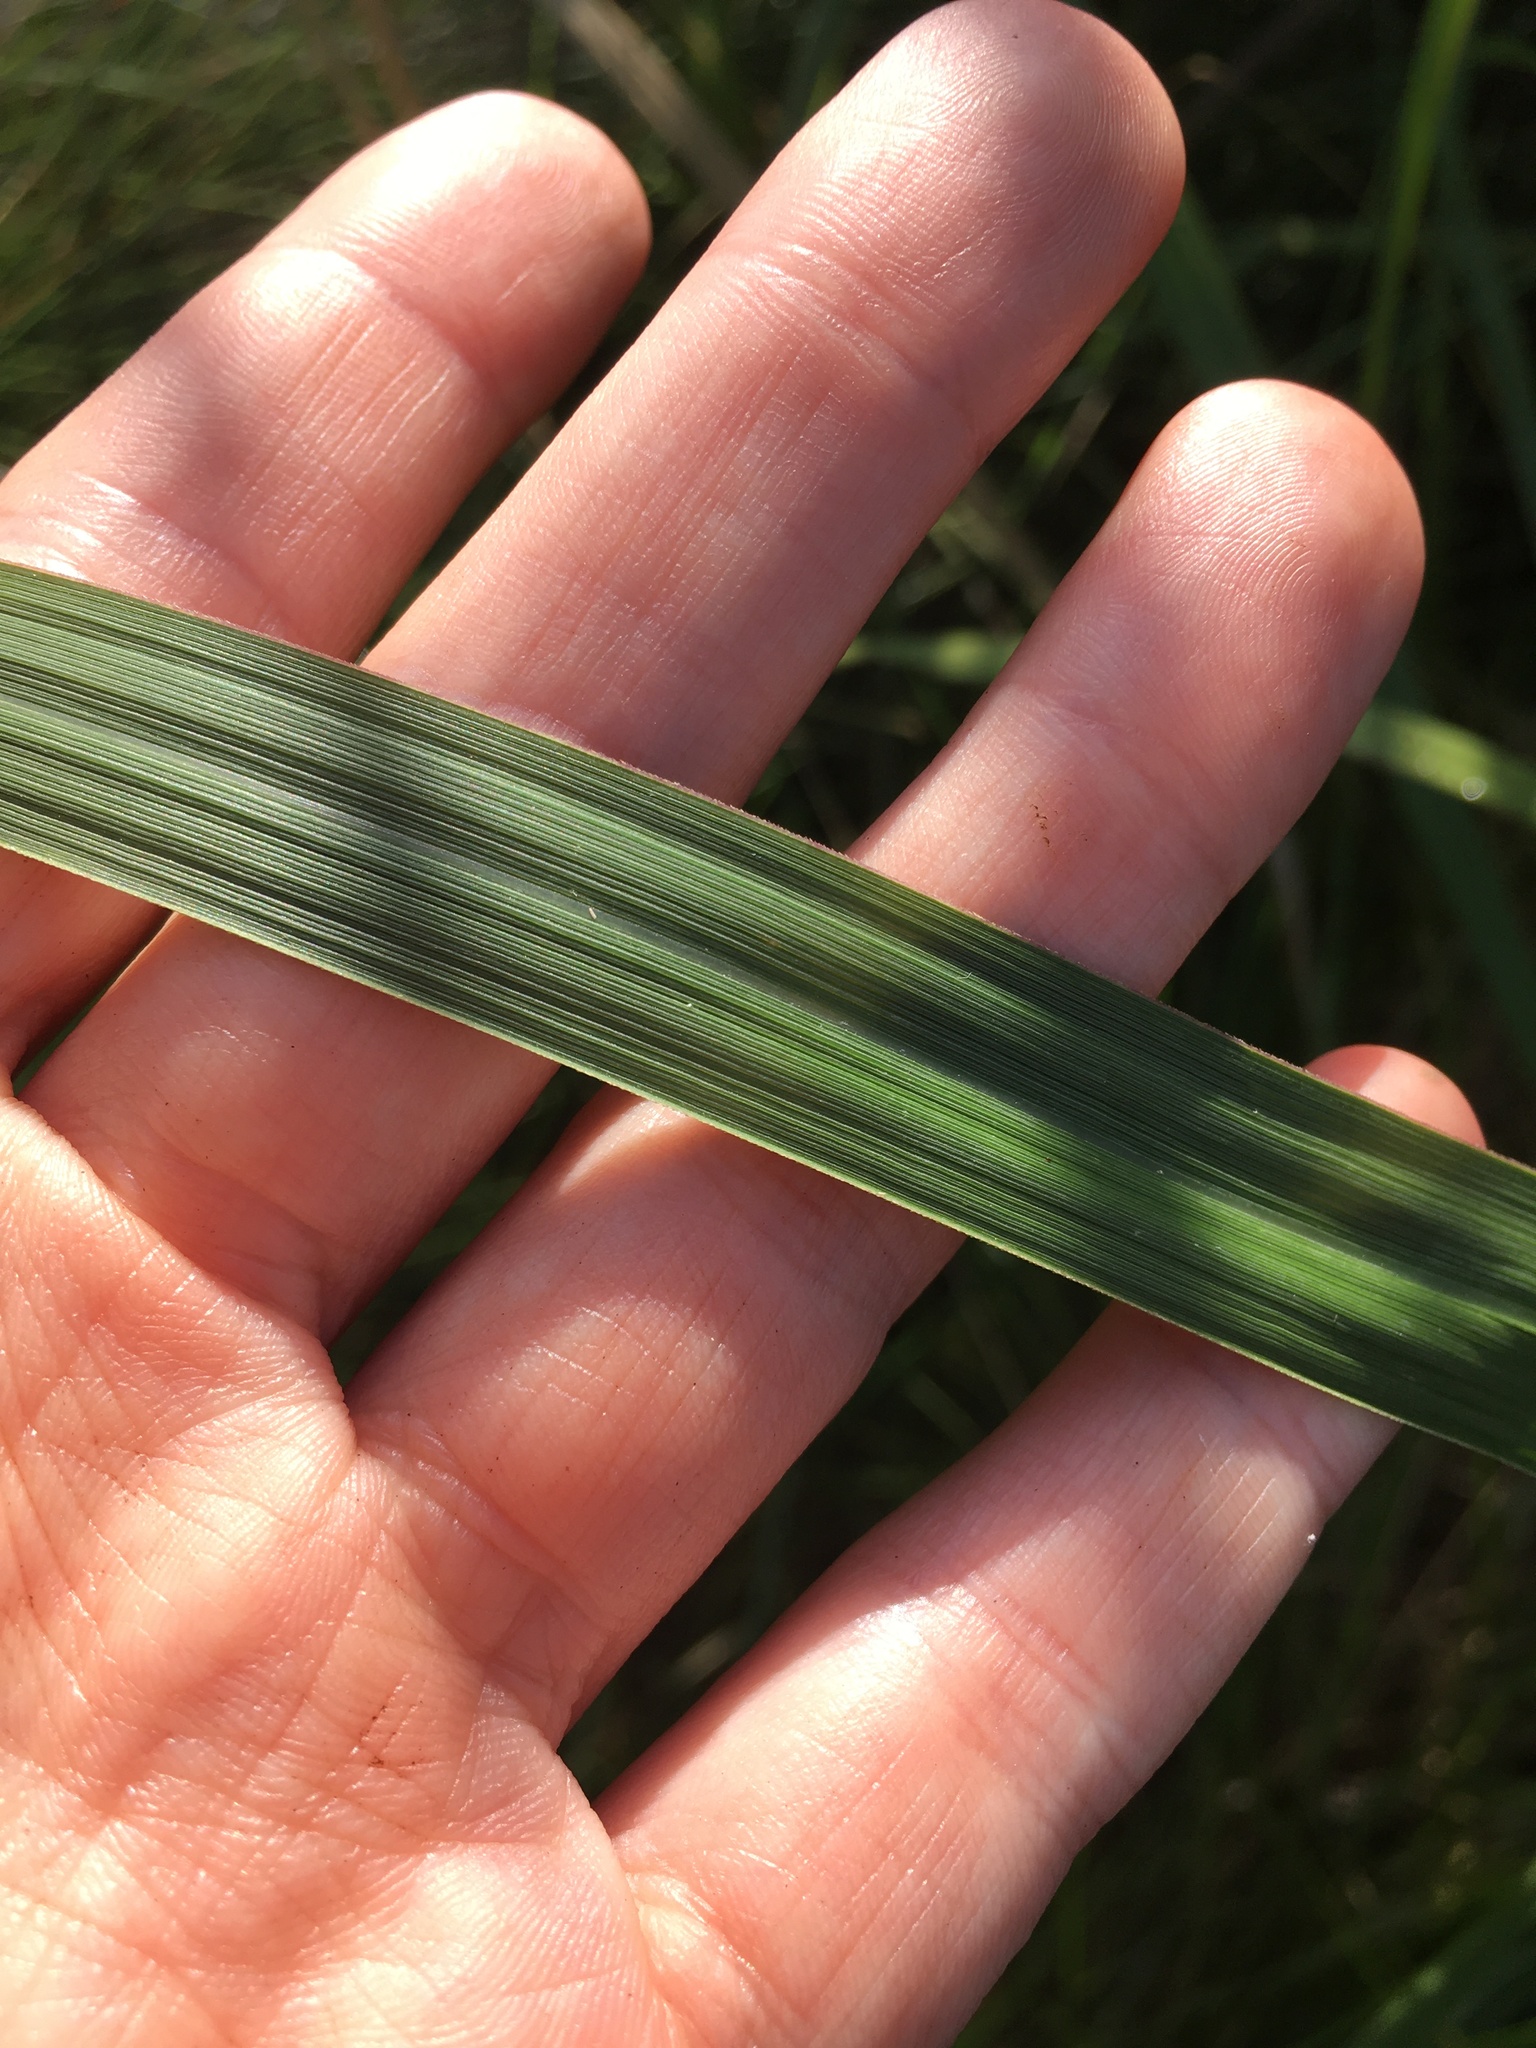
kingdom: Plantae
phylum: Tracheophyta
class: Liliopsida
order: Poales
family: Poaceae
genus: Sporobolus
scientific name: Sporobolus cynosuroides
